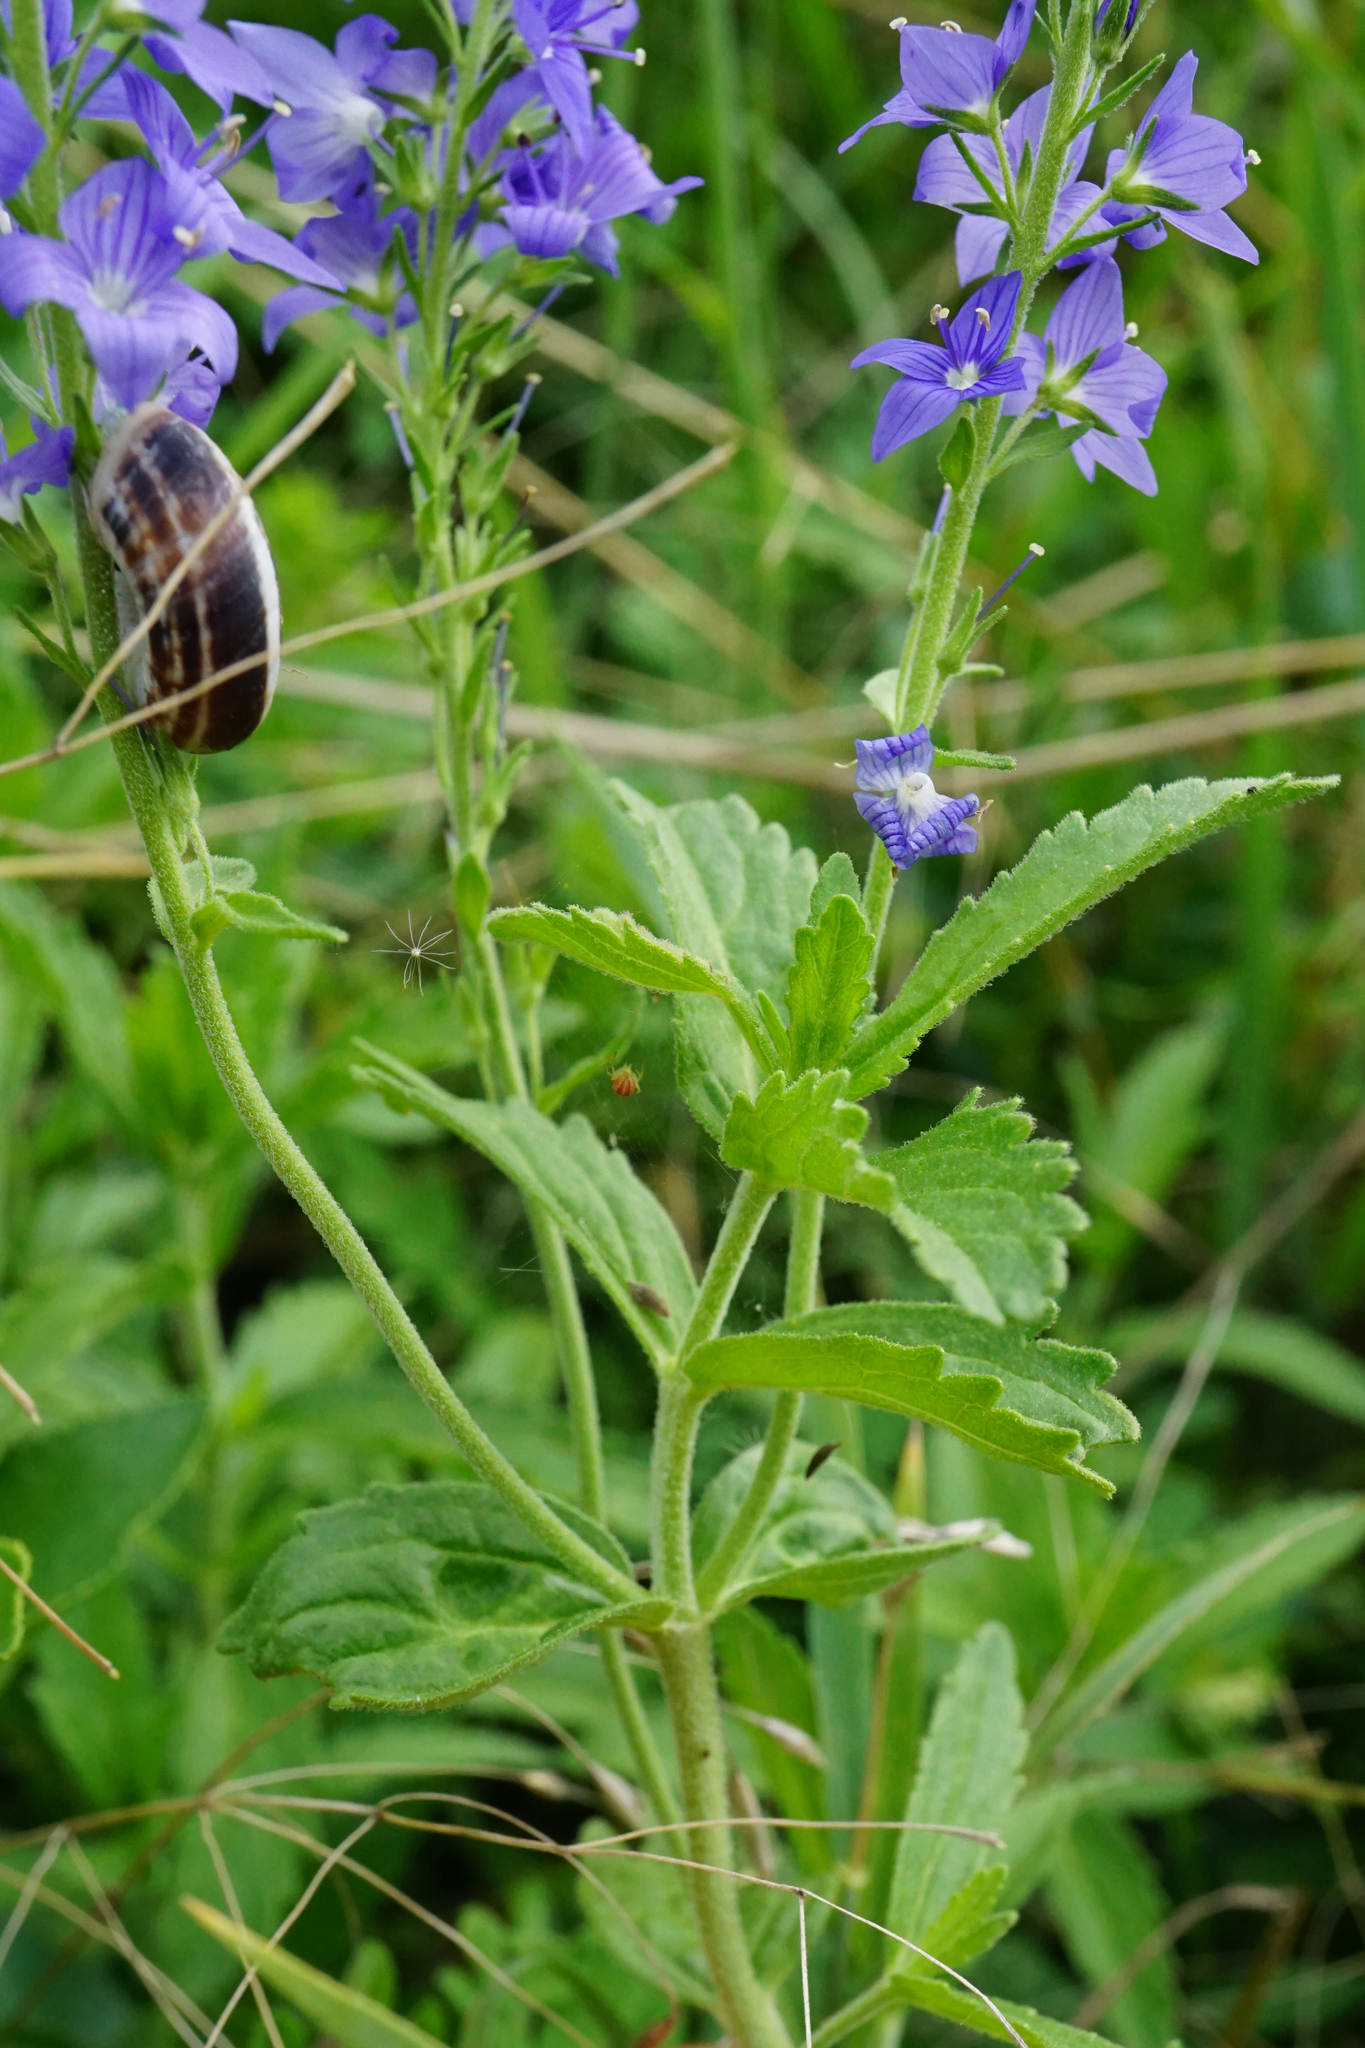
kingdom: Plantae
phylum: Tracheophyta
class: Magnoliopsida
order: Lamiales
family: Plantaginaceae
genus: Veronica
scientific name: Veronica teucrium
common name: Large speedwell
